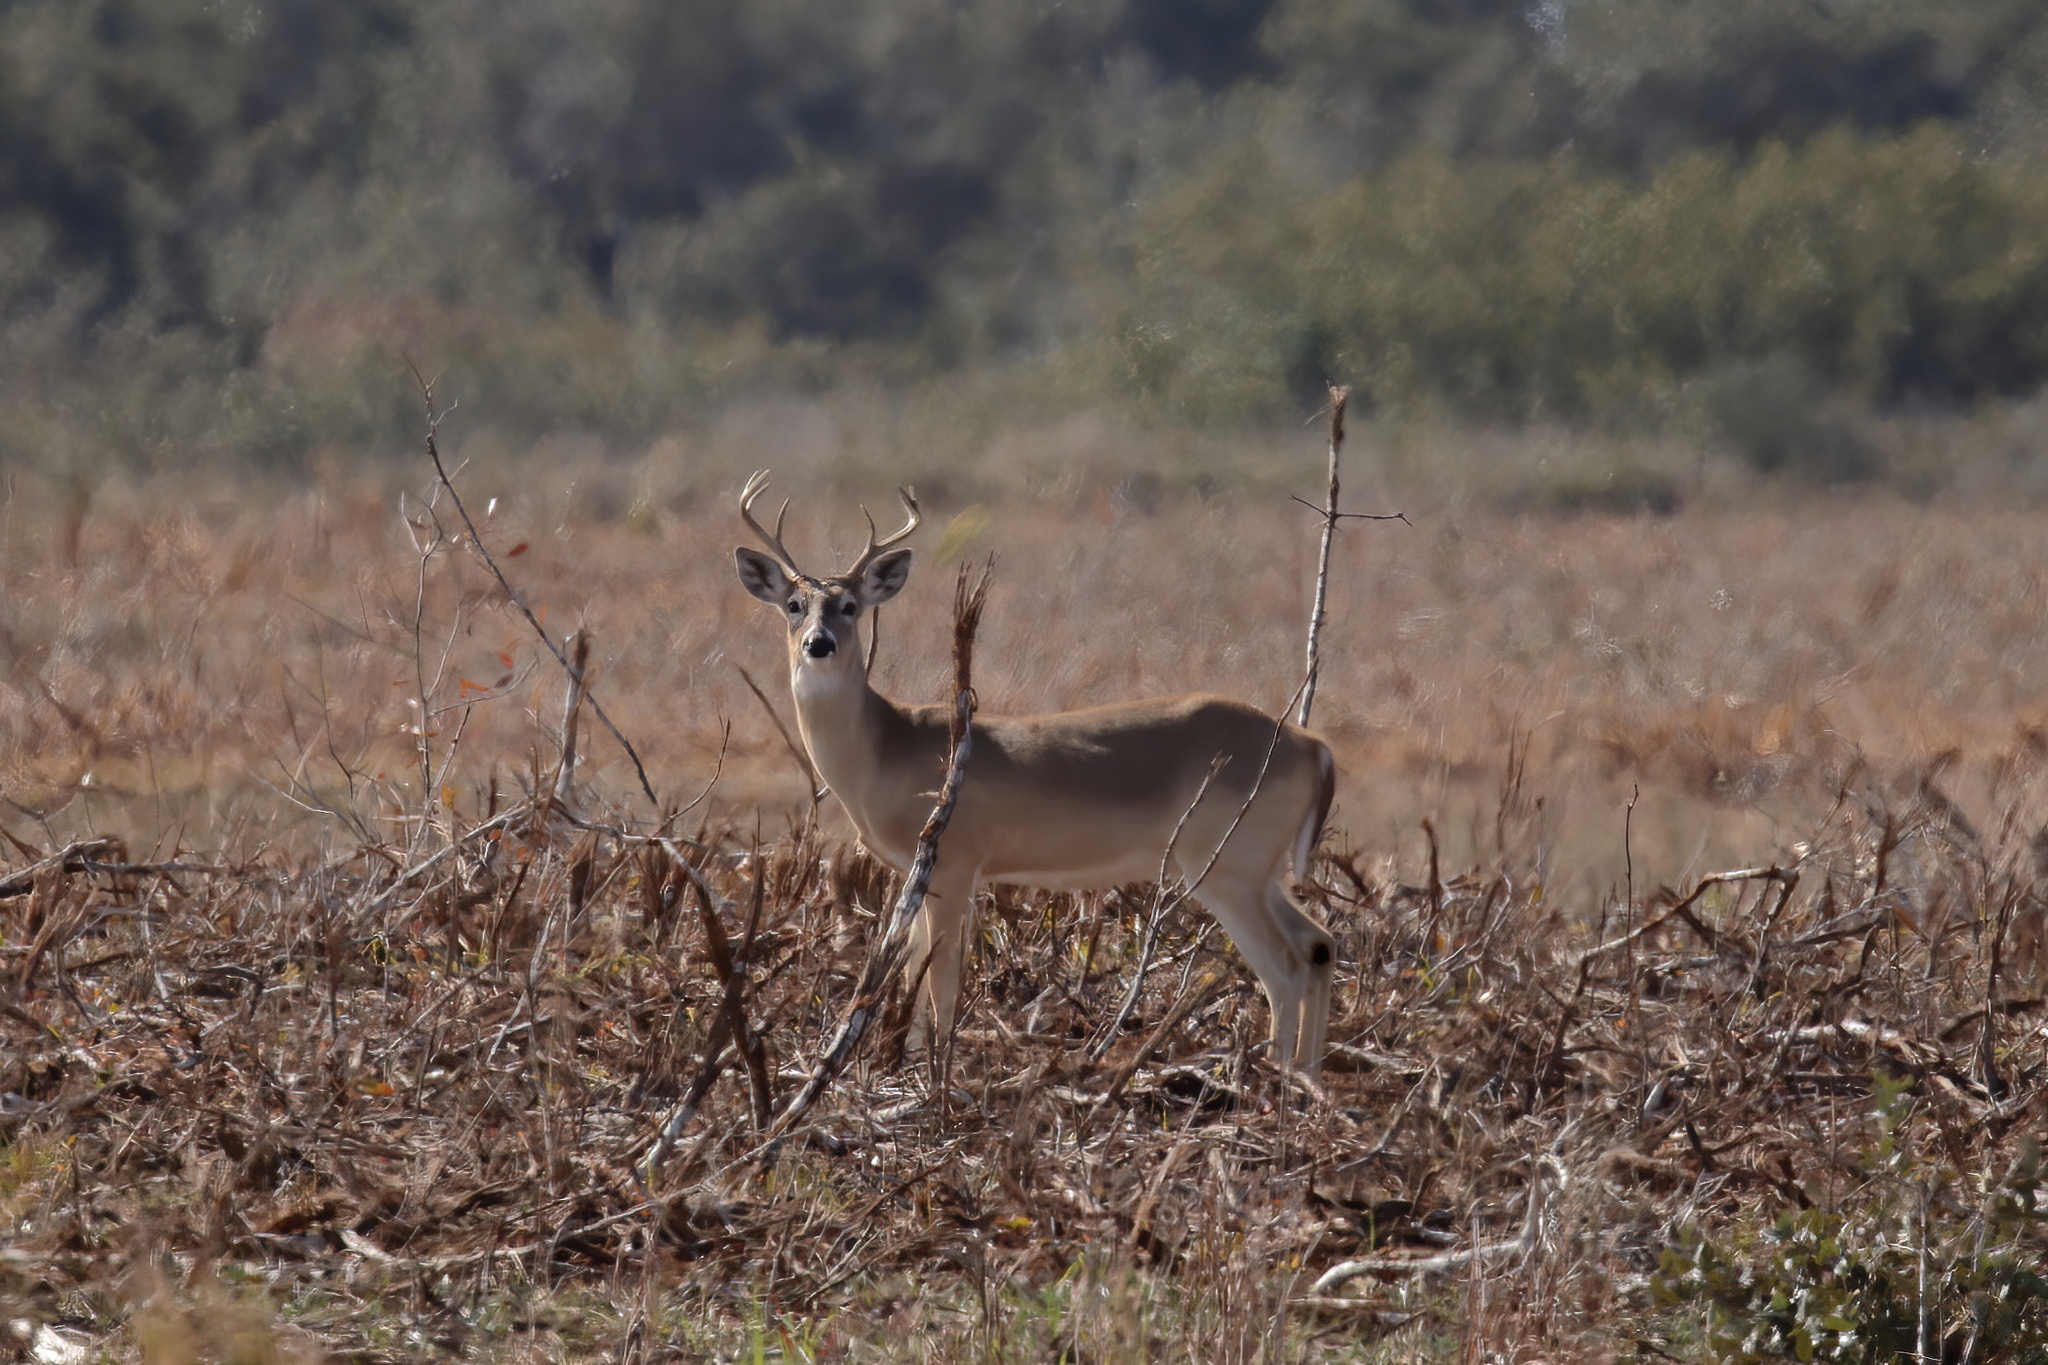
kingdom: Animalia
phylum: Chordata
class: Mammalia
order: Artiodactyla
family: Cervidae
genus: Odocoileus
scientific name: Odocoileus virginianus
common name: White-tailed deer
